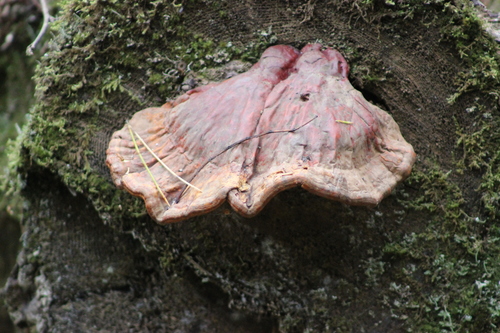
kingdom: Fungi
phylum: Basidiomycota
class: Agaricomycetes
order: Polyporales
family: Polyporaceae
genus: Ganoderma
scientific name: Ganoderma lucidum
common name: Lacquered bracket
